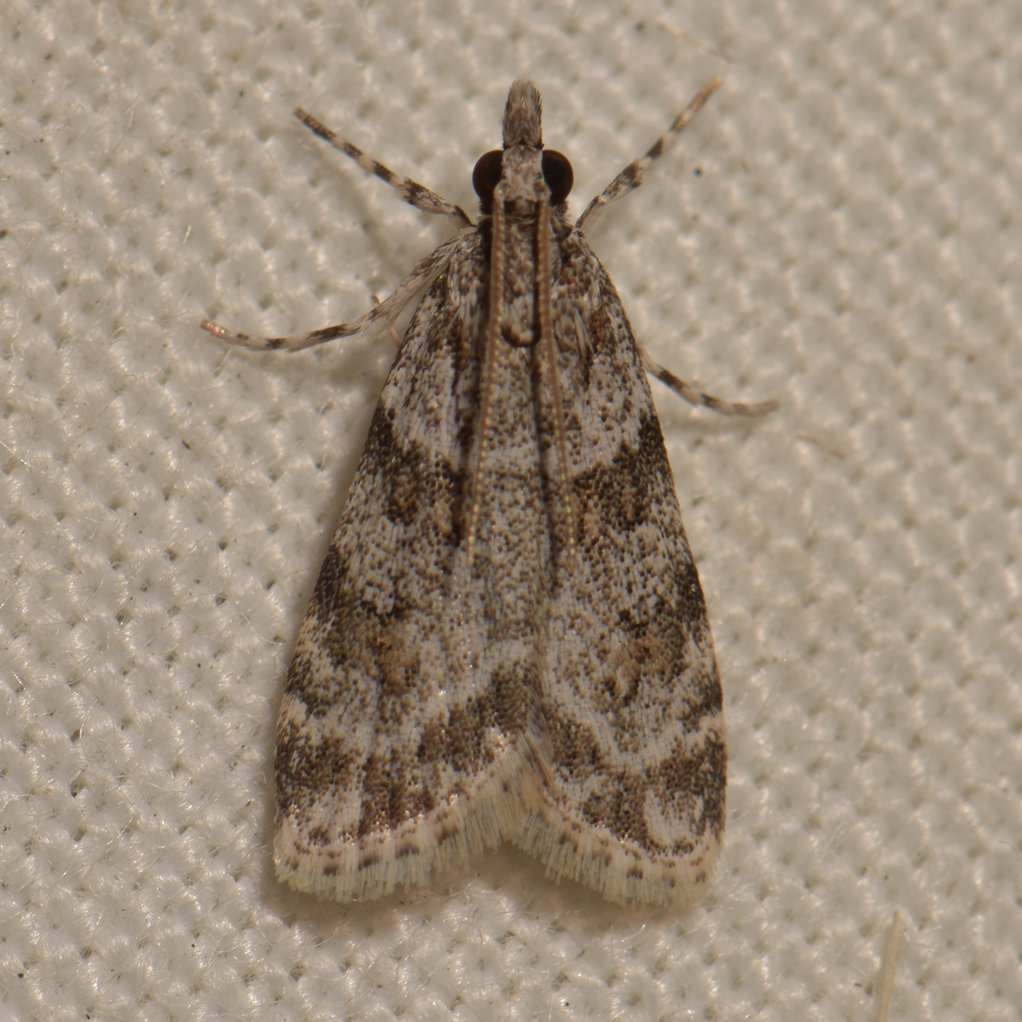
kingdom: Animalia
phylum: Arthropoda
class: Insecta
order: Lepidoptera
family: Crambidae
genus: Scoparia
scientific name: Scoparia biplagialis
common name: Double-striped scoparia moth
